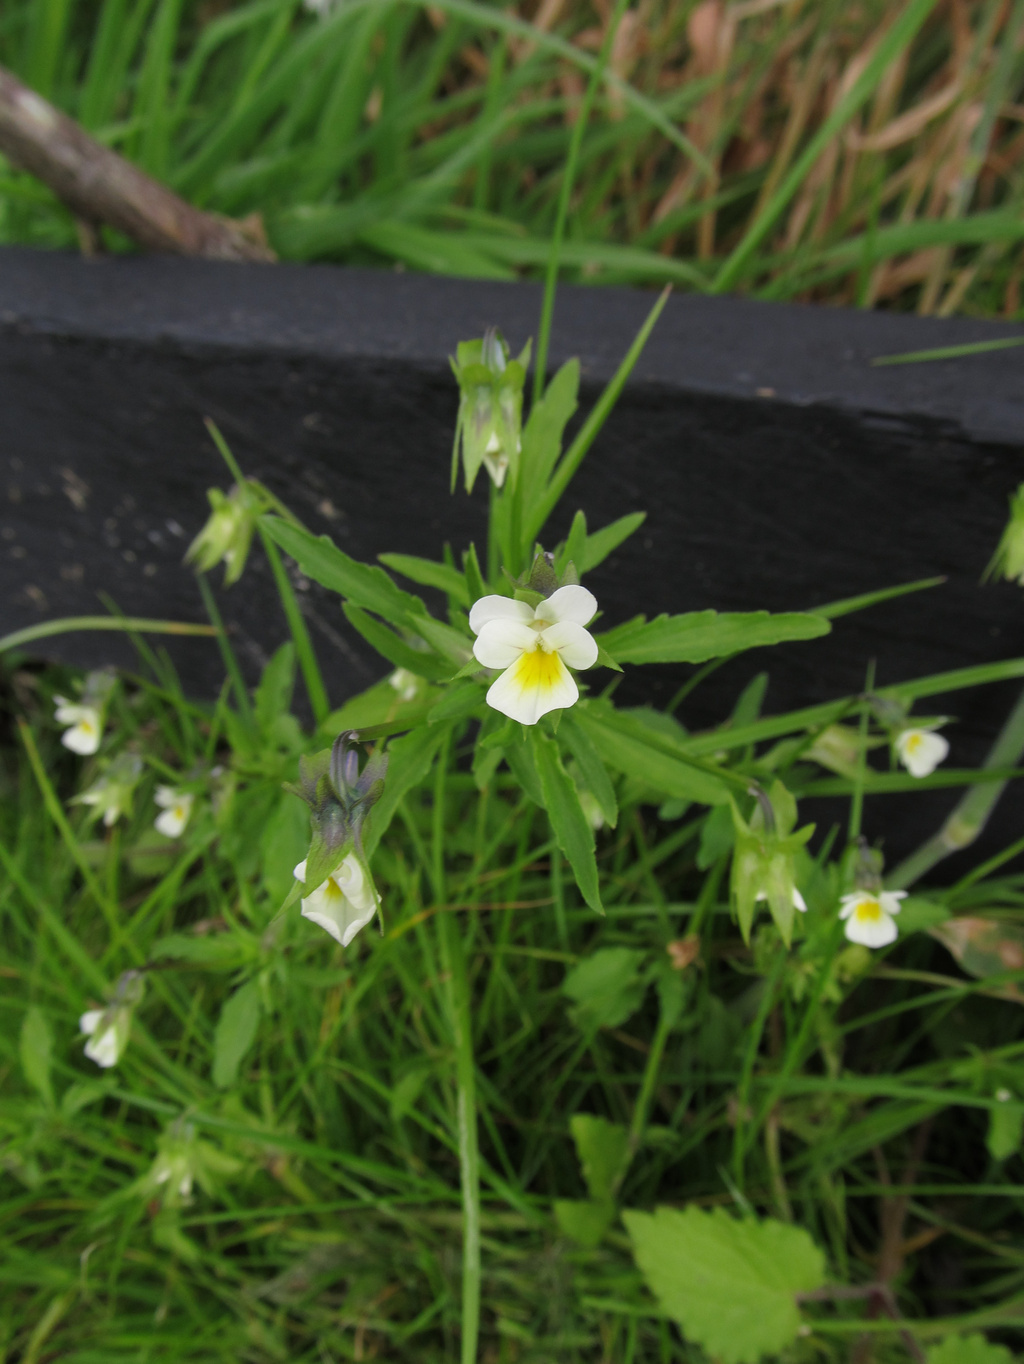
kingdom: Plantae
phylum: Tracheophyta
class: Magnoliopsida
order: Malpighiales
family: Violaceae
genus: Viola
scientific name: Viola arvensis
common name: Field pansy
